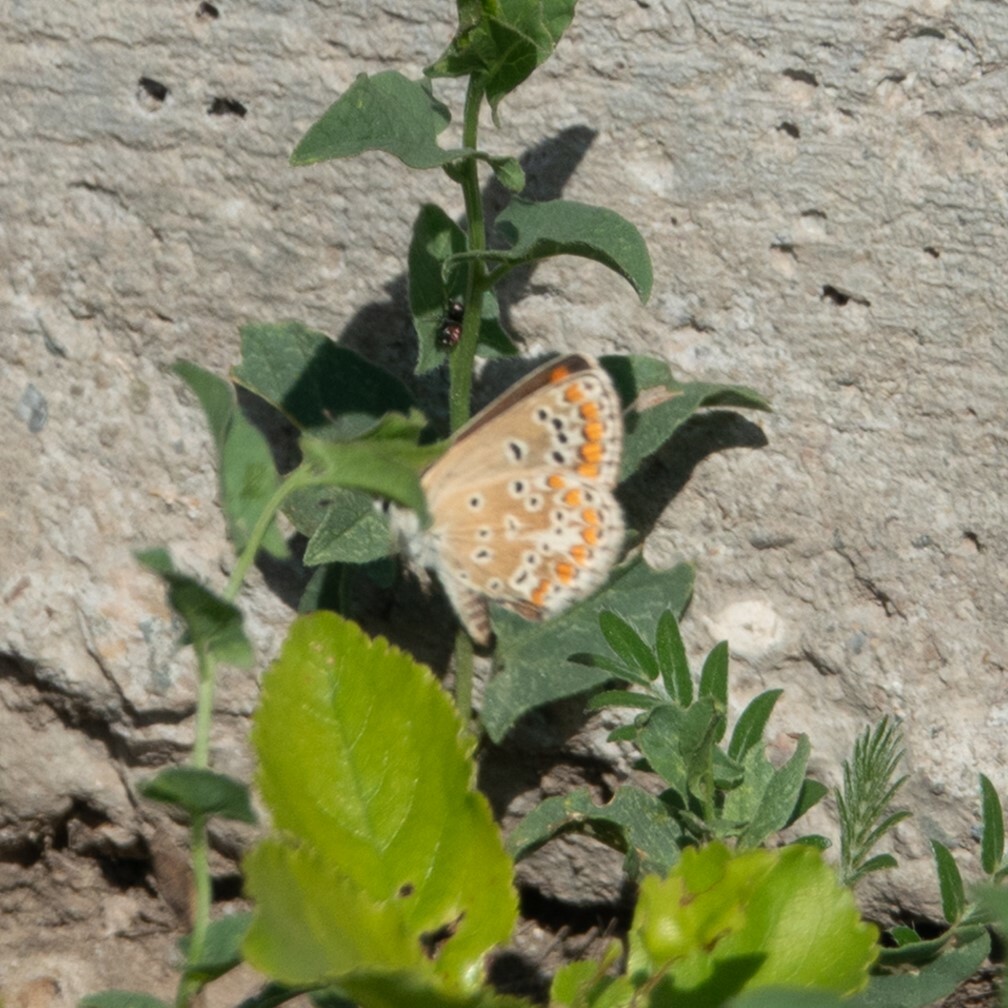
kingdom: Animalia
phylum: Arthropoda
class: Insecta
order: Lepidoptera
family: Lycaenidae
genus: Aricia
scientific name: Aricia agestis
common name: Brown argus
